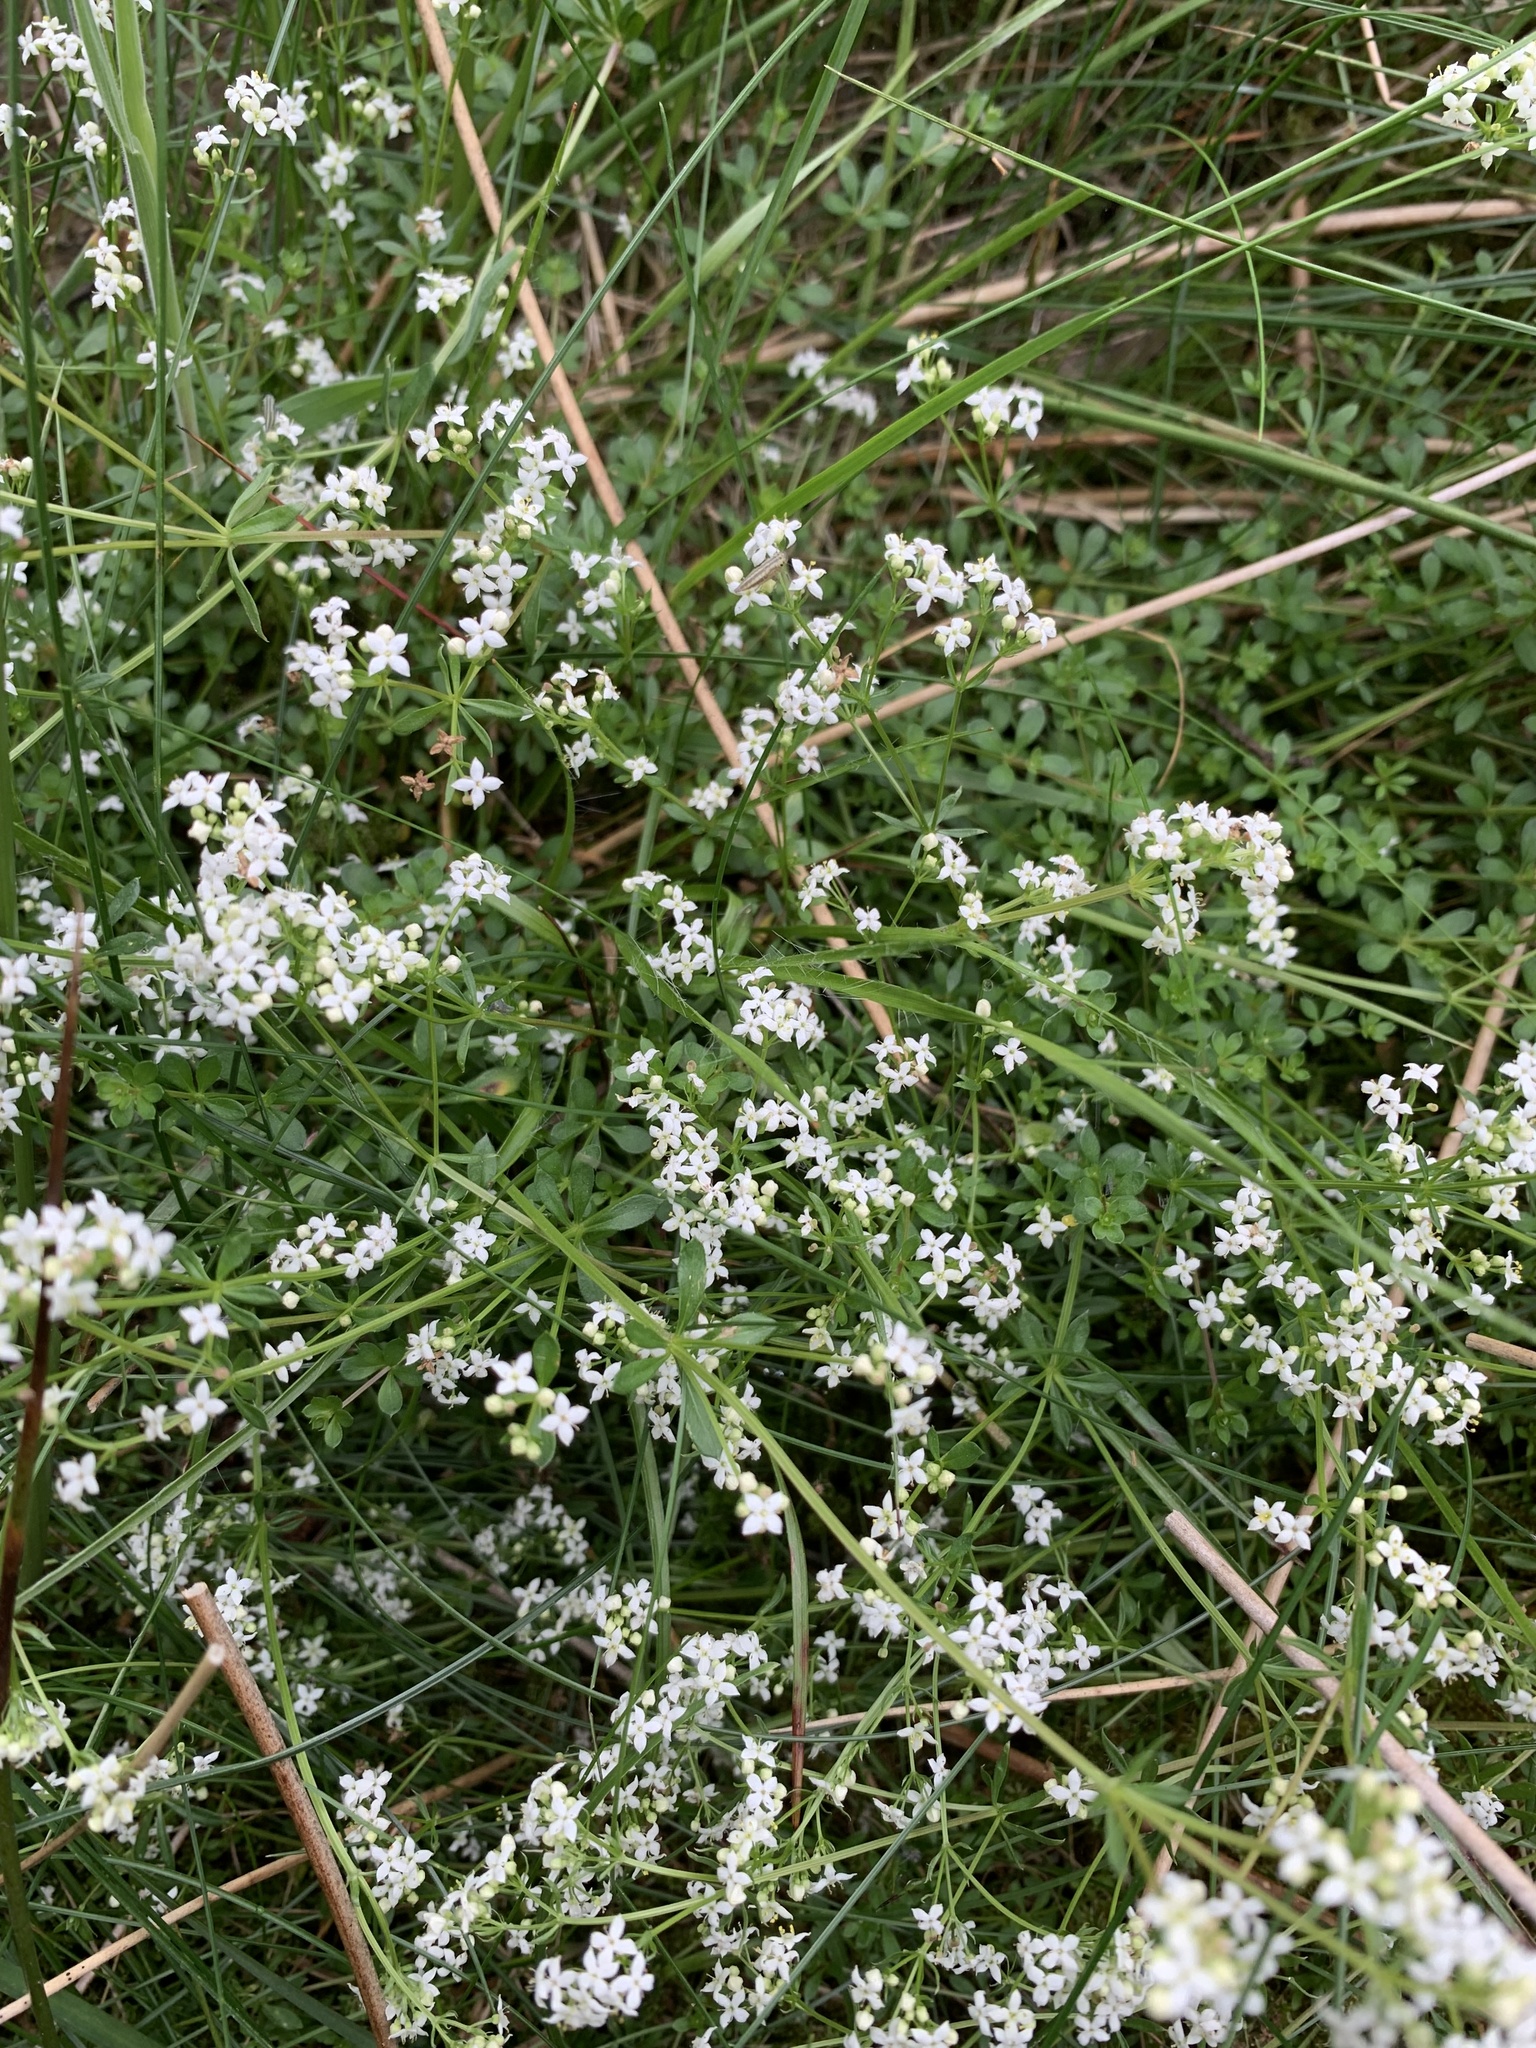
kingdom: Plantae
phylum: Tracheophyta
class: Magnoliopsida
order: Gentianales
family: Rubiaceae
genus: Galium
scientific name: Galium saxatile
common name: Heath bedstraw
